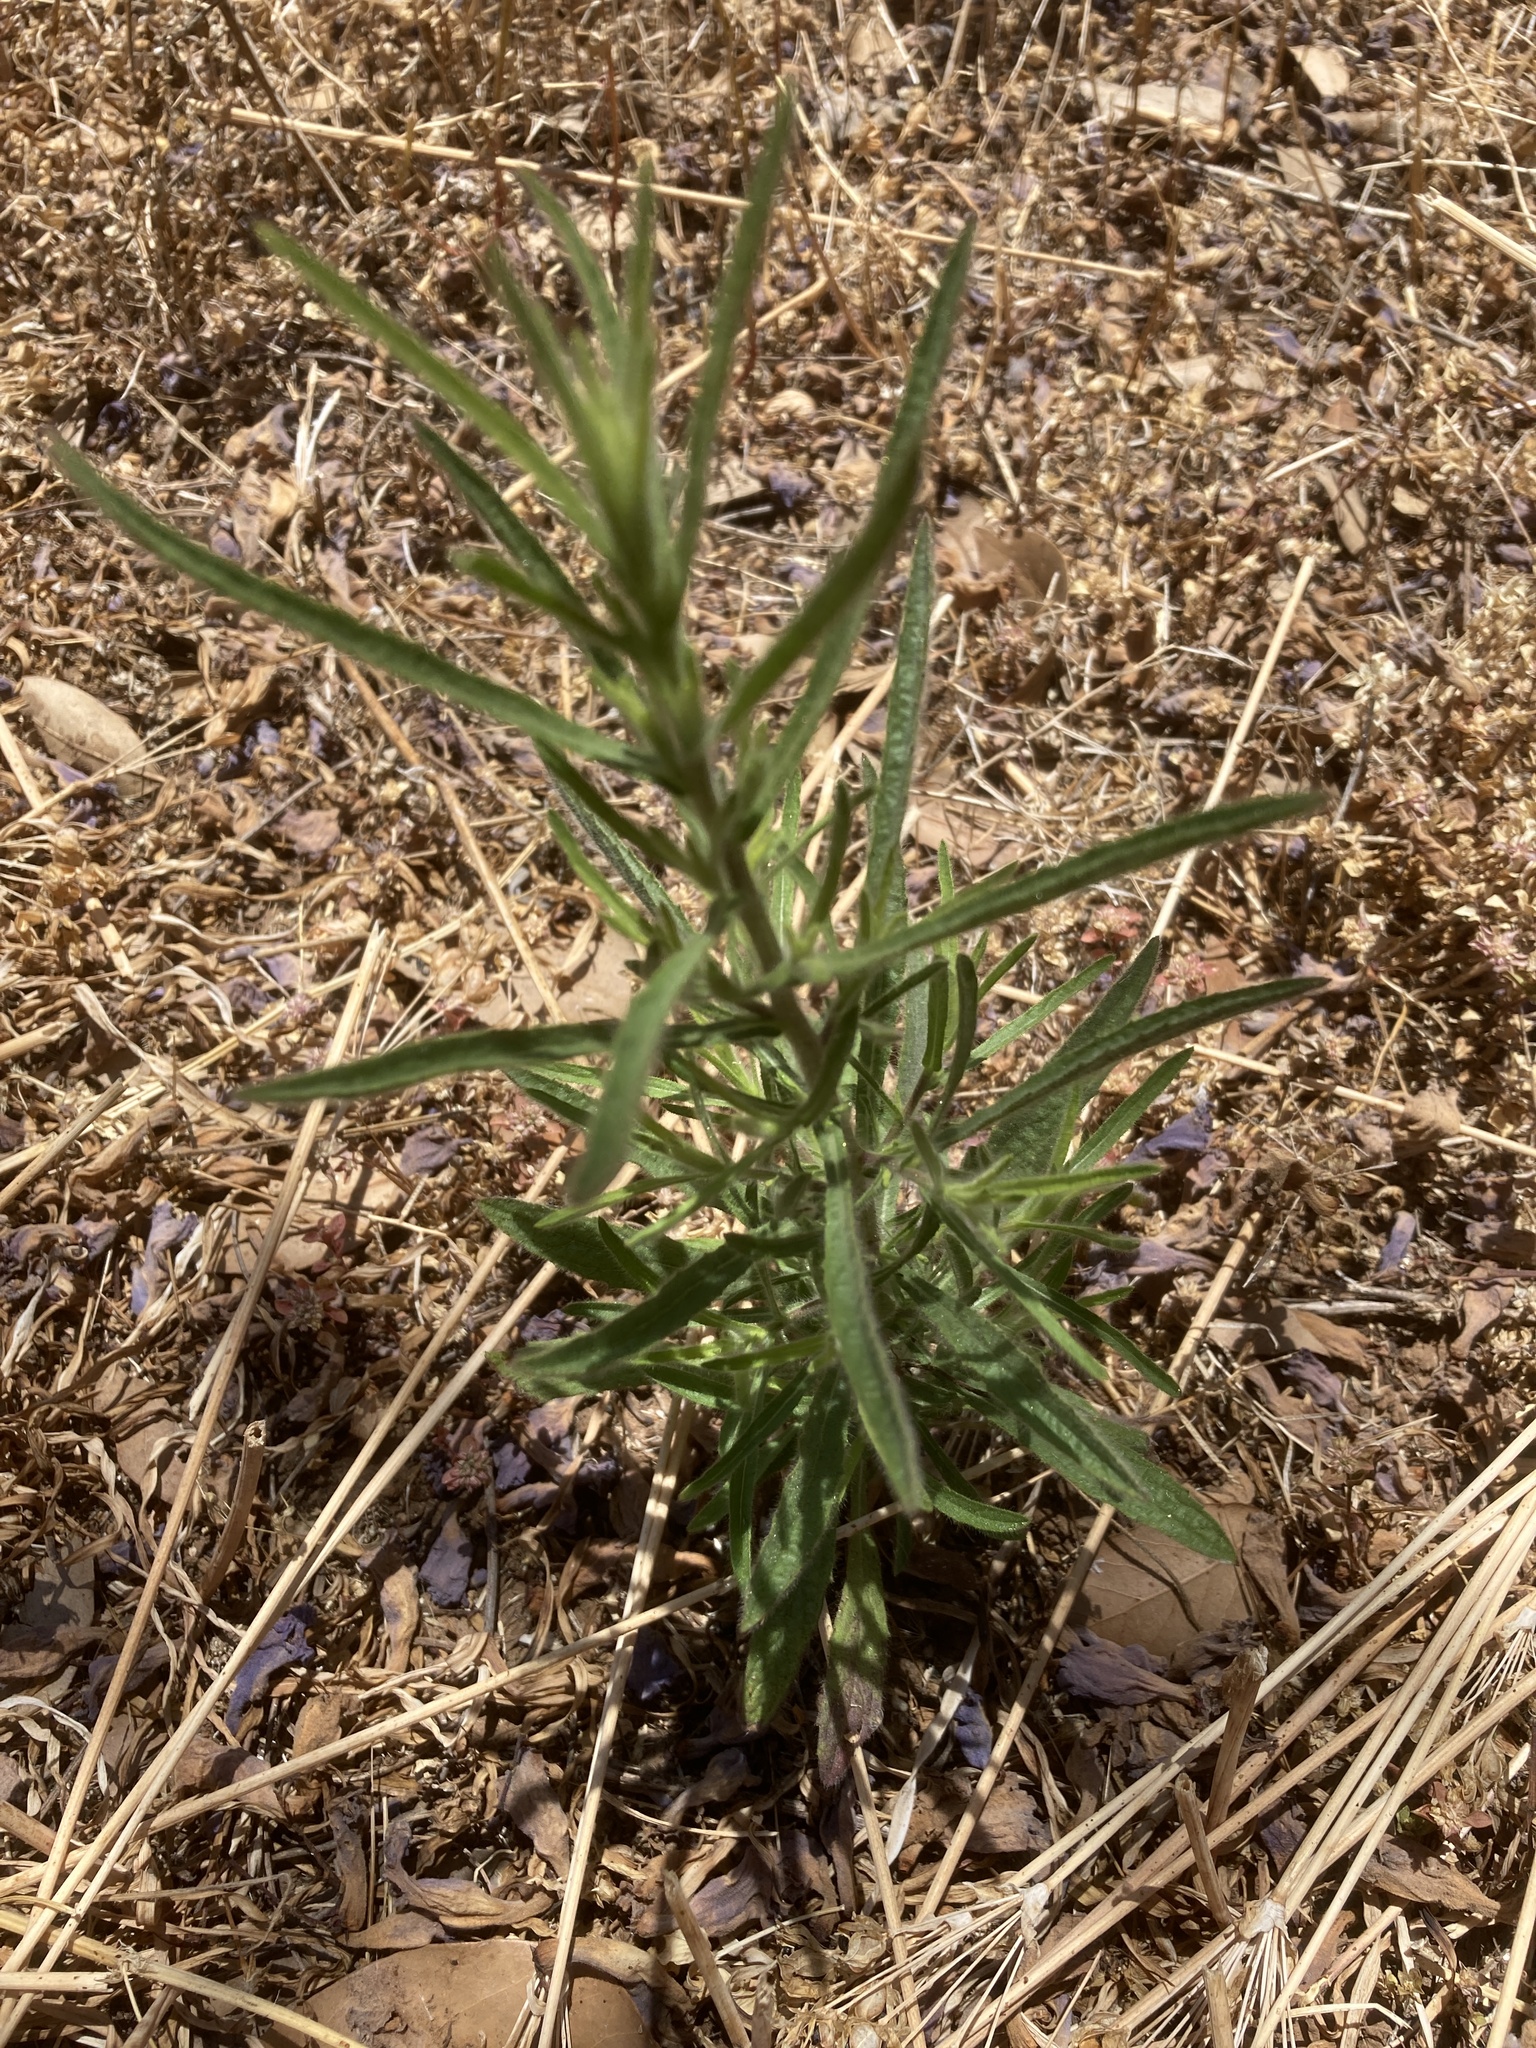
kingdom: Plantae
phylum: Tracheophyta
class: Magnoliopsida
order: Asterales
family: Asteraceae
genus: Dittrichia
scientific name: Dittrichia graveolens
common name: Stinking fleabane
